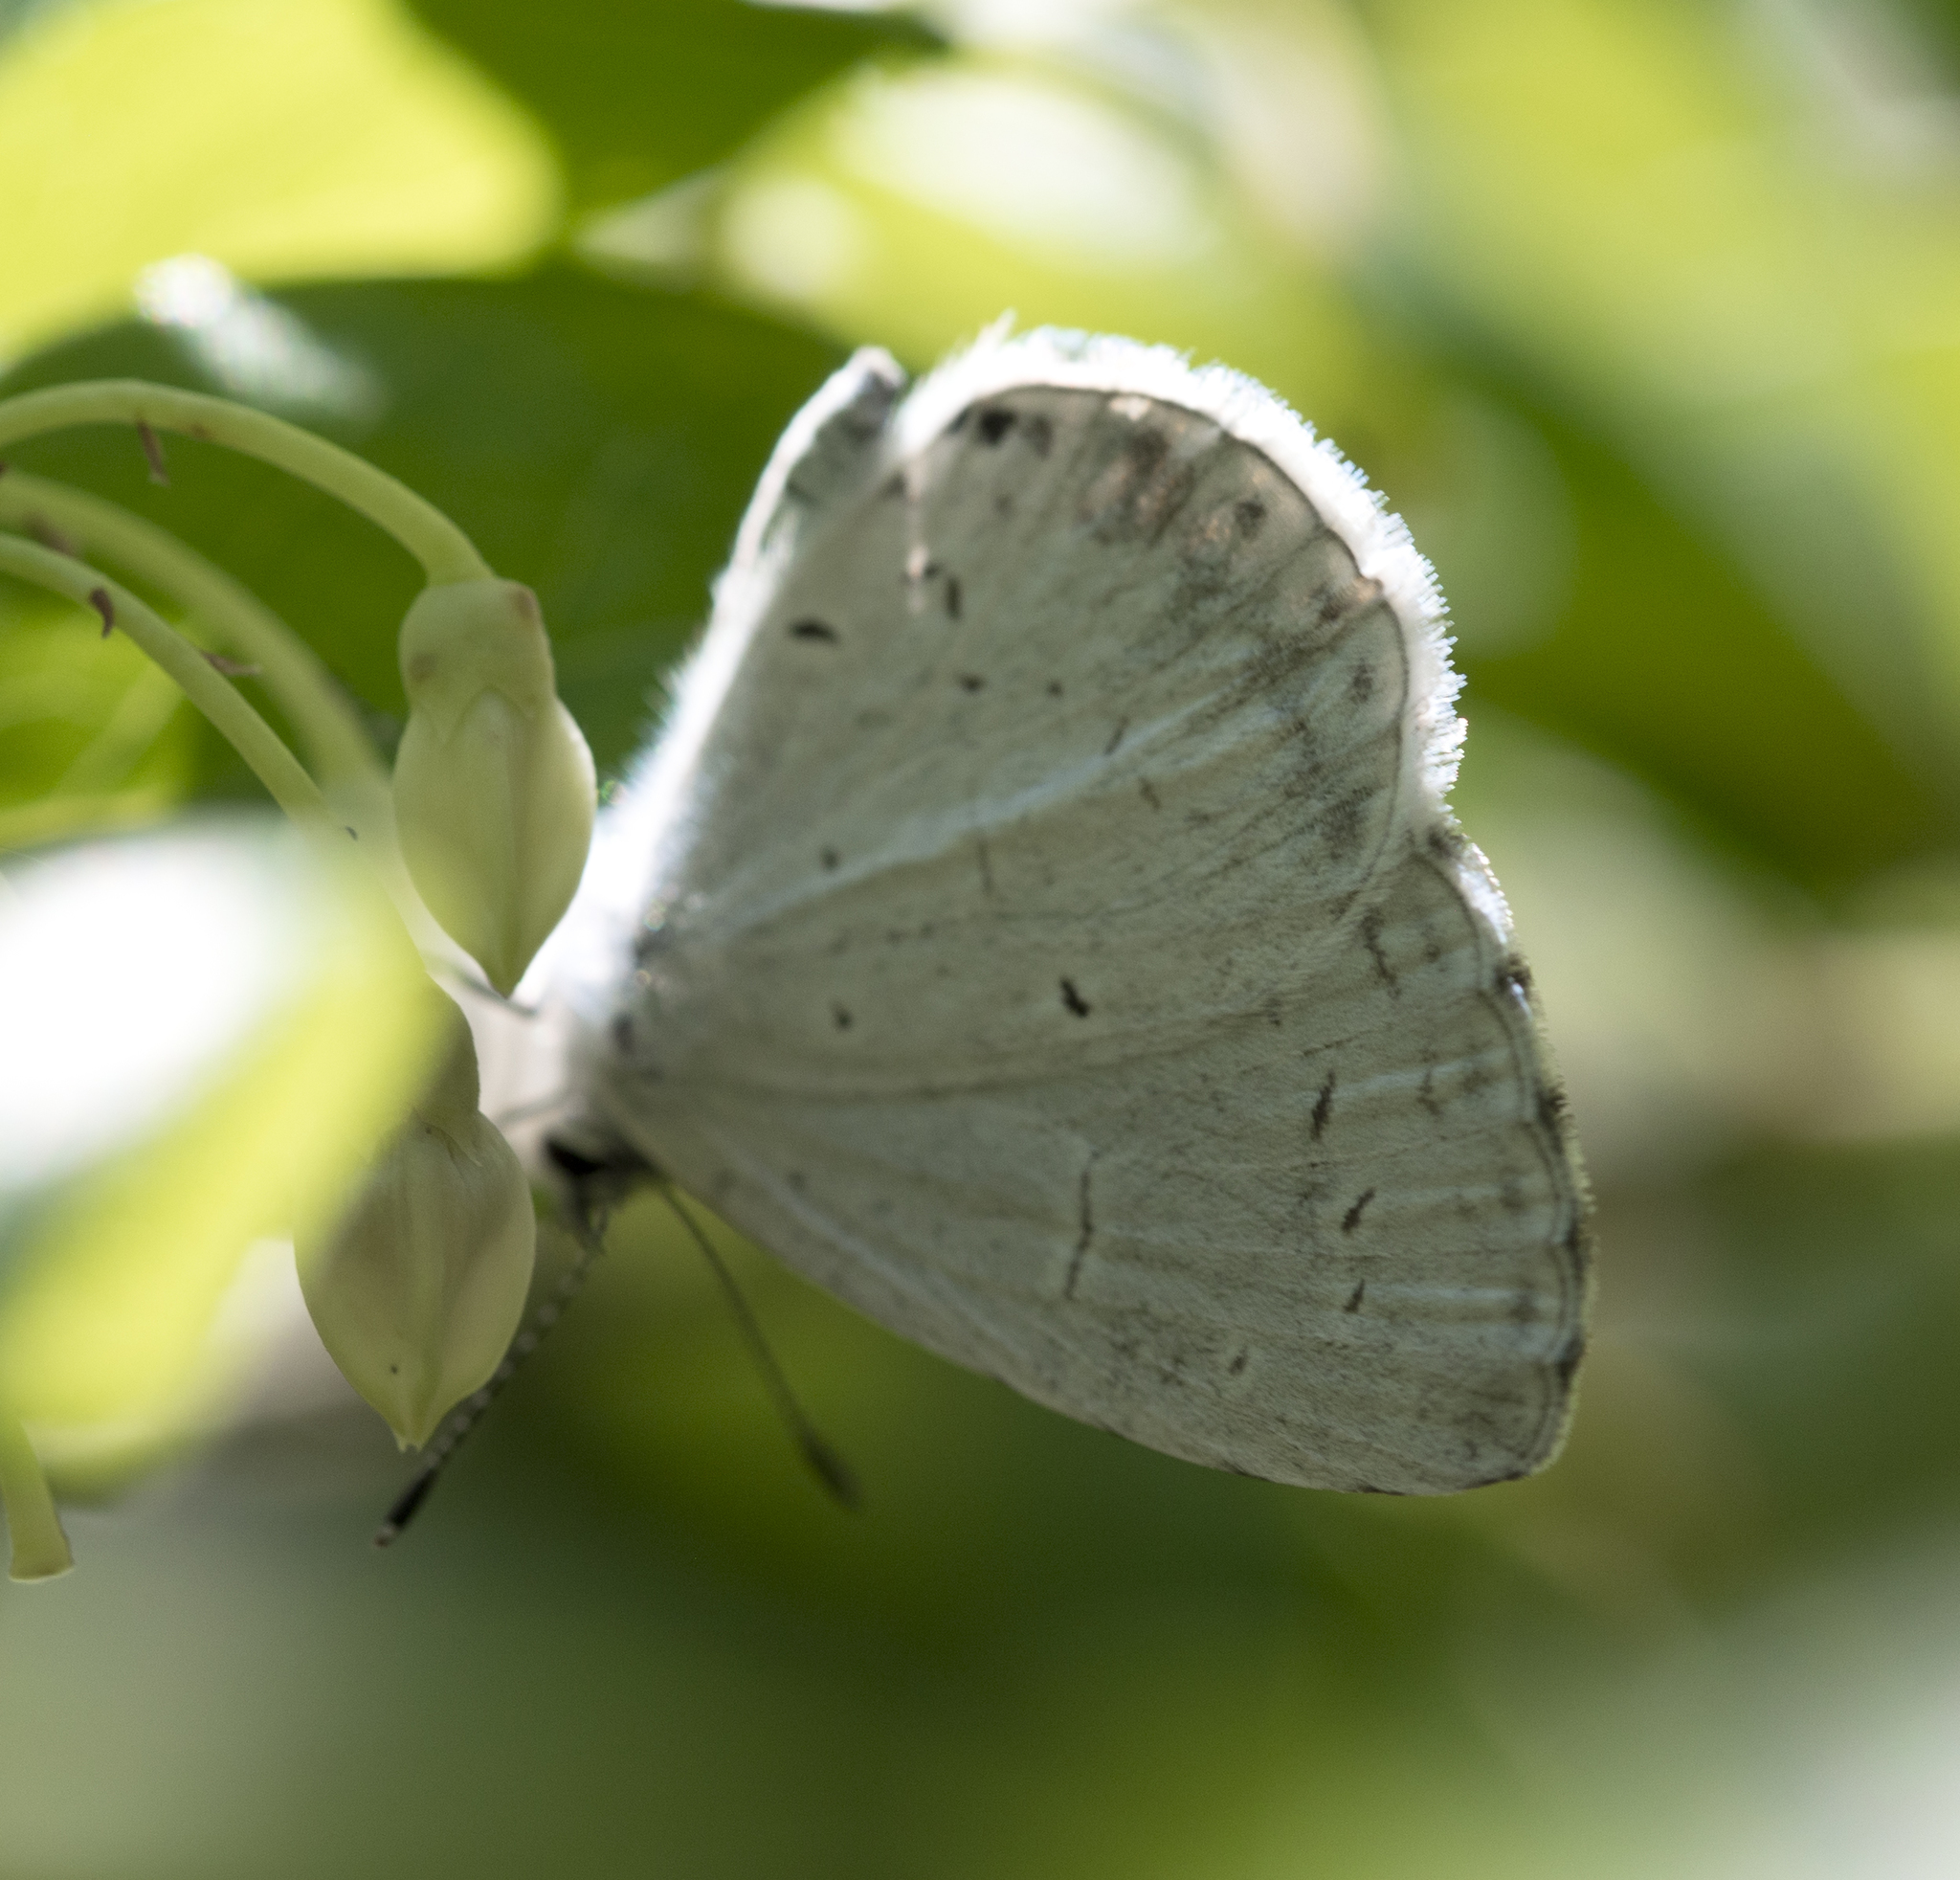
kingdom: Animalia
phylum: Arthropoda
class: Insecta
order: Lepidoptera
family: Lycaenidae
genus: Cyaniris
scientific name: Cyaniris neglecta
